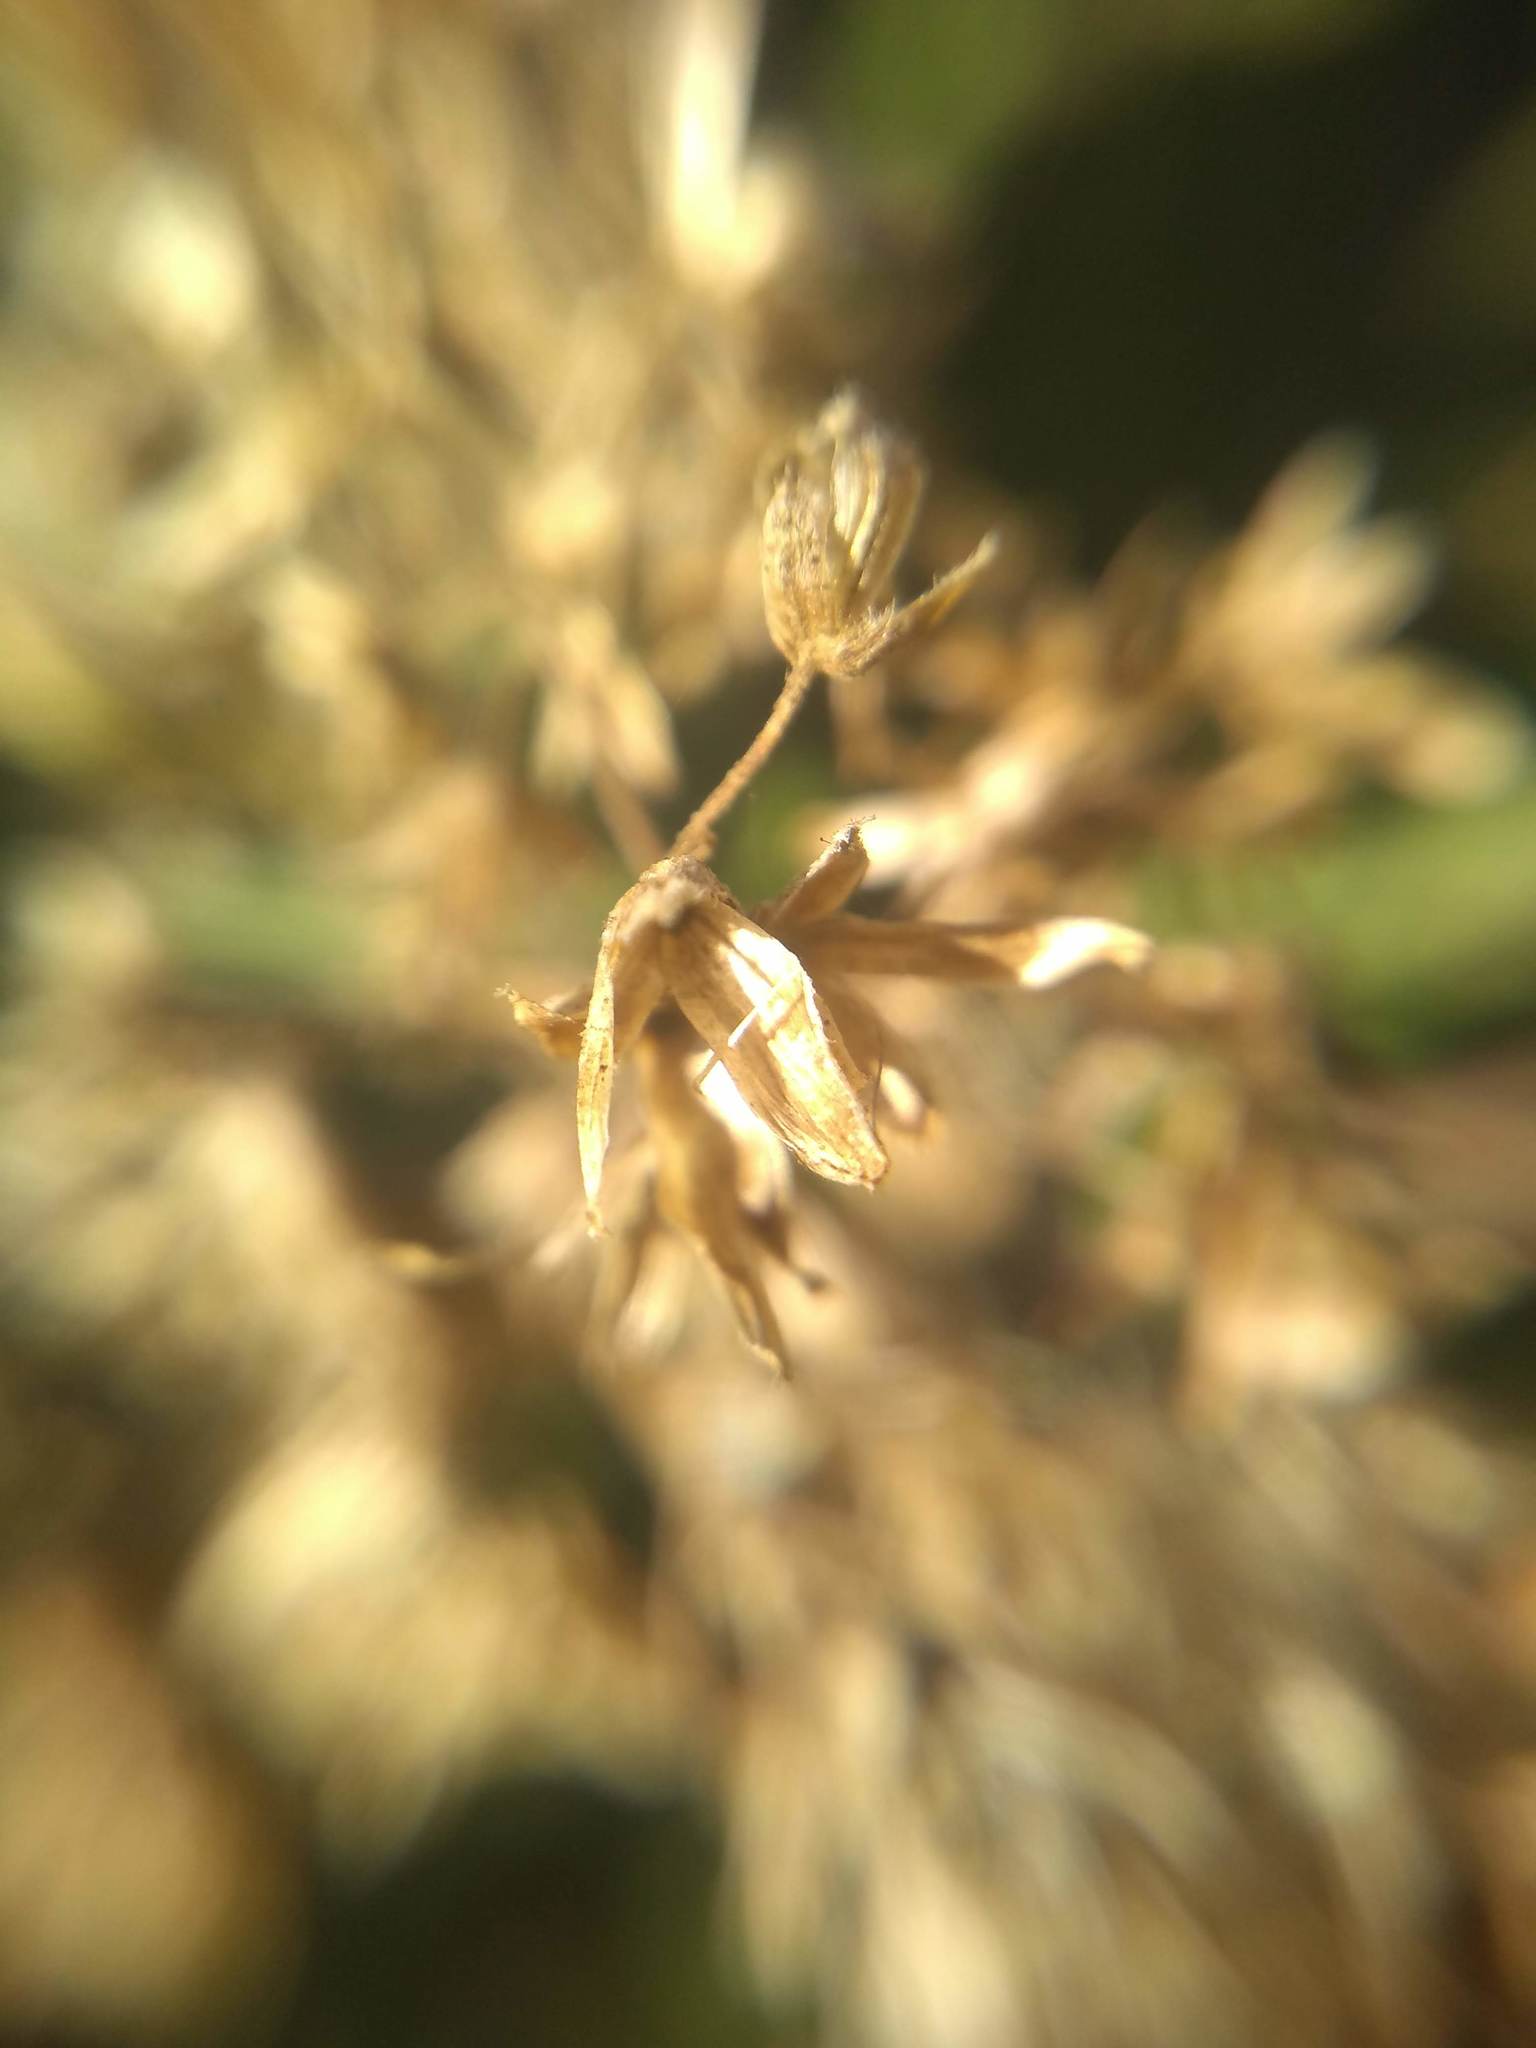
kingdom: Plantae
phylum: Tracheophyta
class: Magnoliopsida
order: Asterales
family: Asteraceae
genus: Austroeupatorium
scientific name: Austroeupatorium inulifolium
